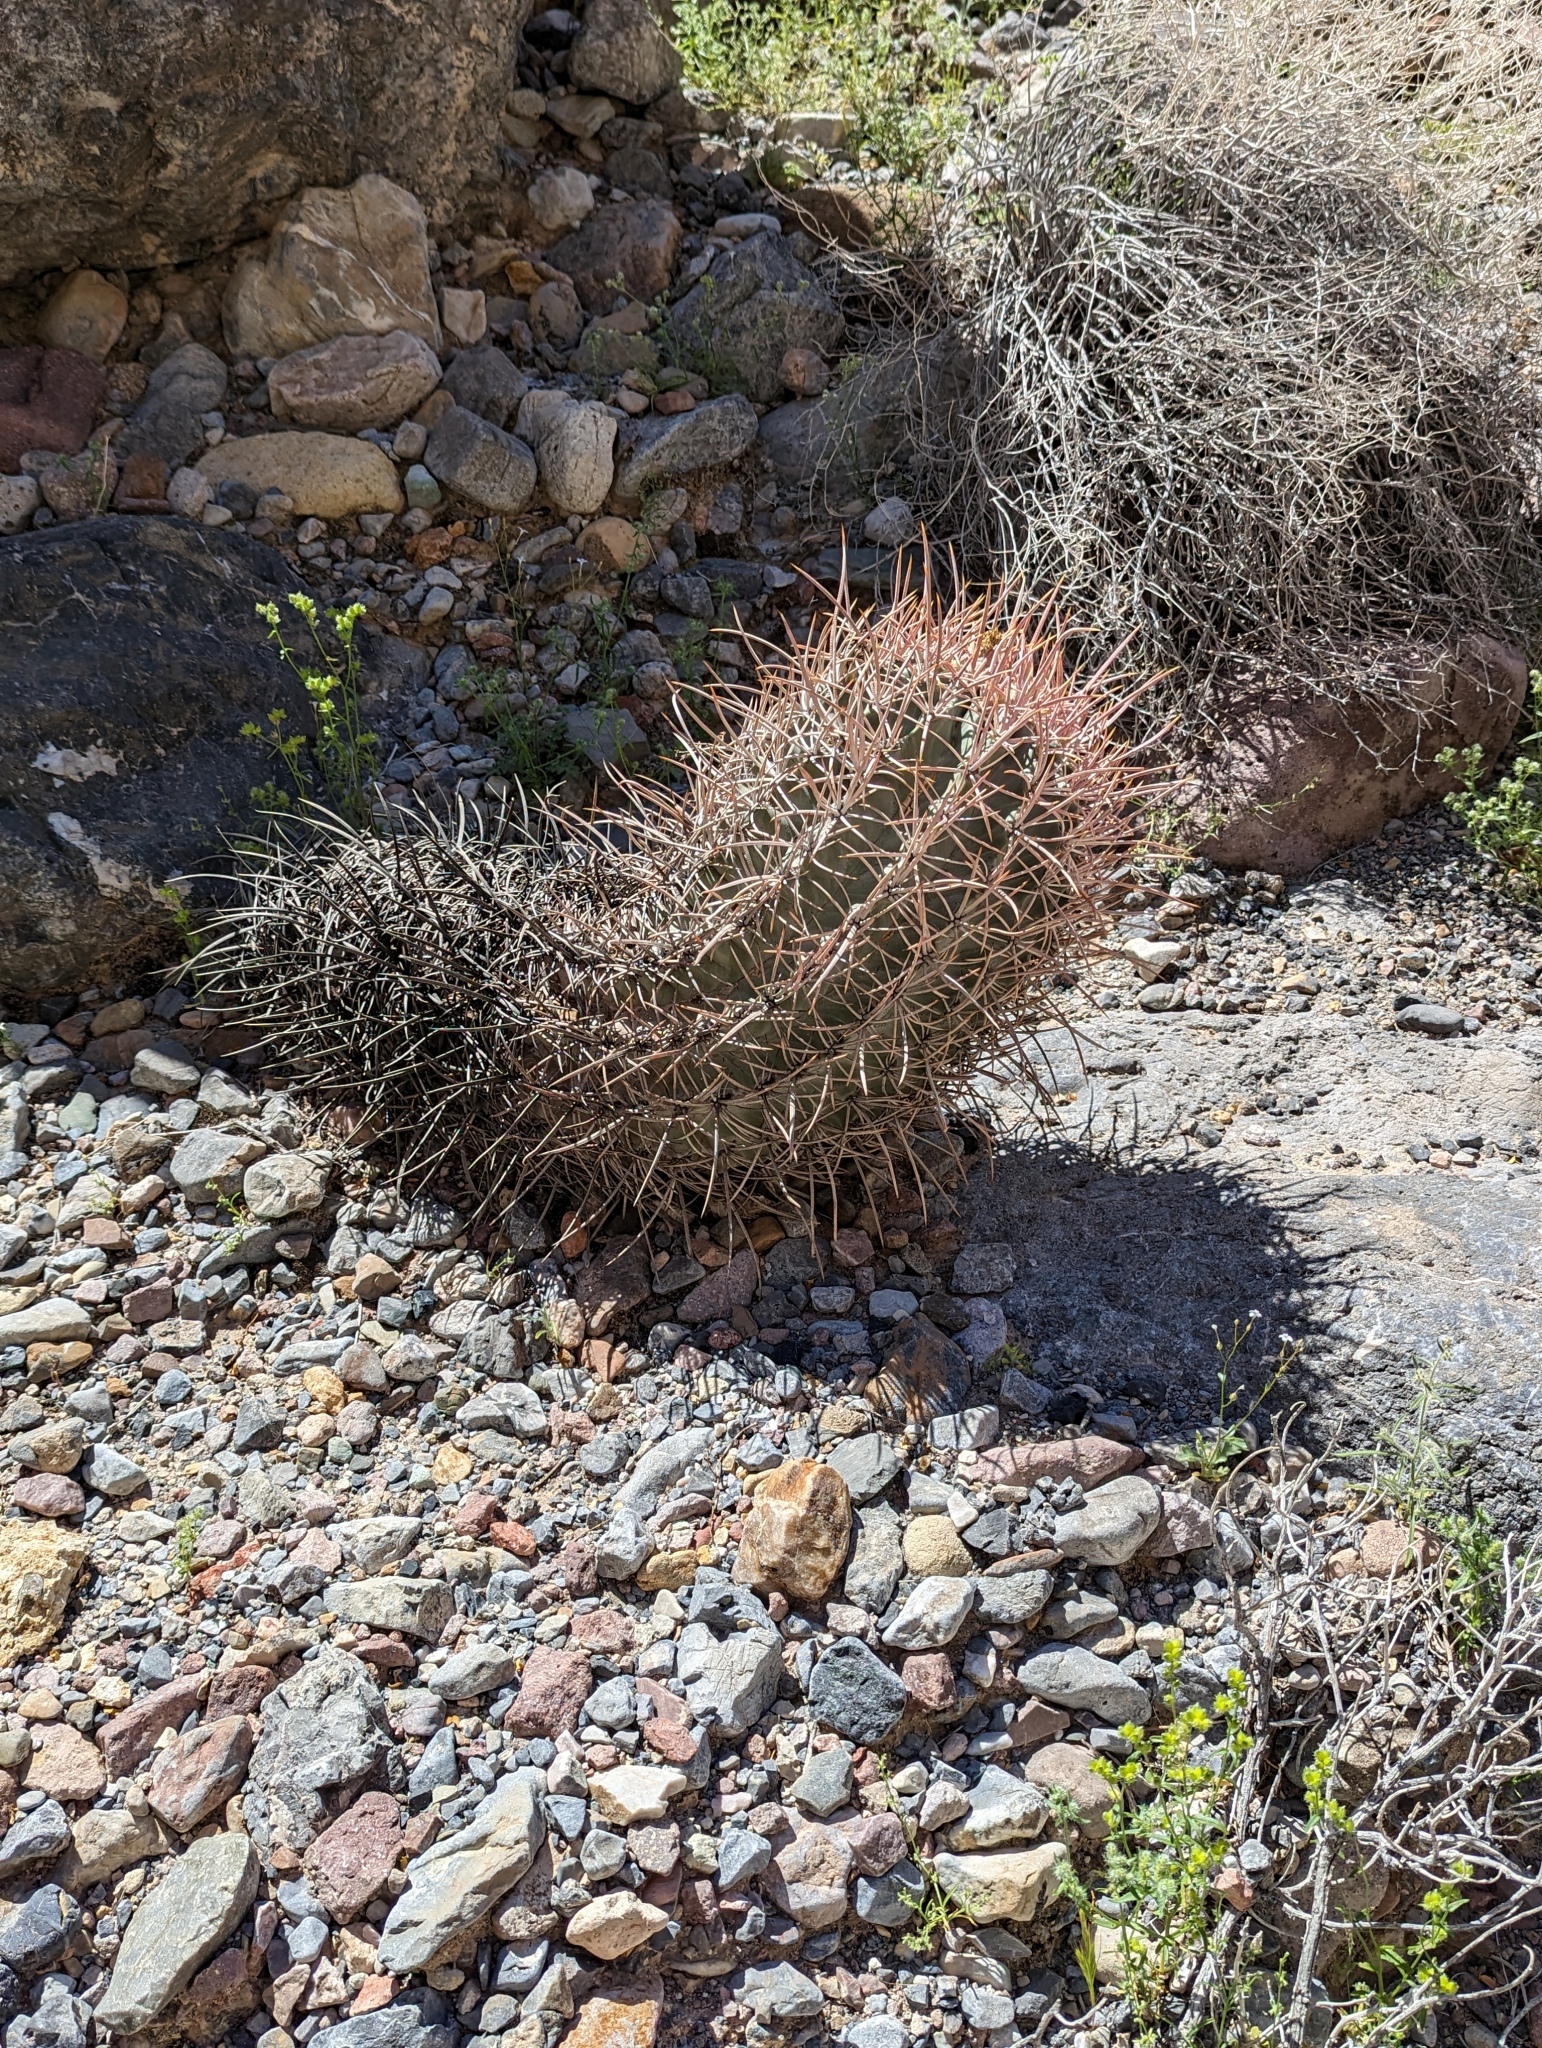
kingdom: Plantae
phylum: Tracheophyta
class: Magnoliopsida
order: Caryophyllales
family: Cactaceae
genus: Echinocactus
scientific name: Echinocactus polycephalus
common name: Cottontop cactus
